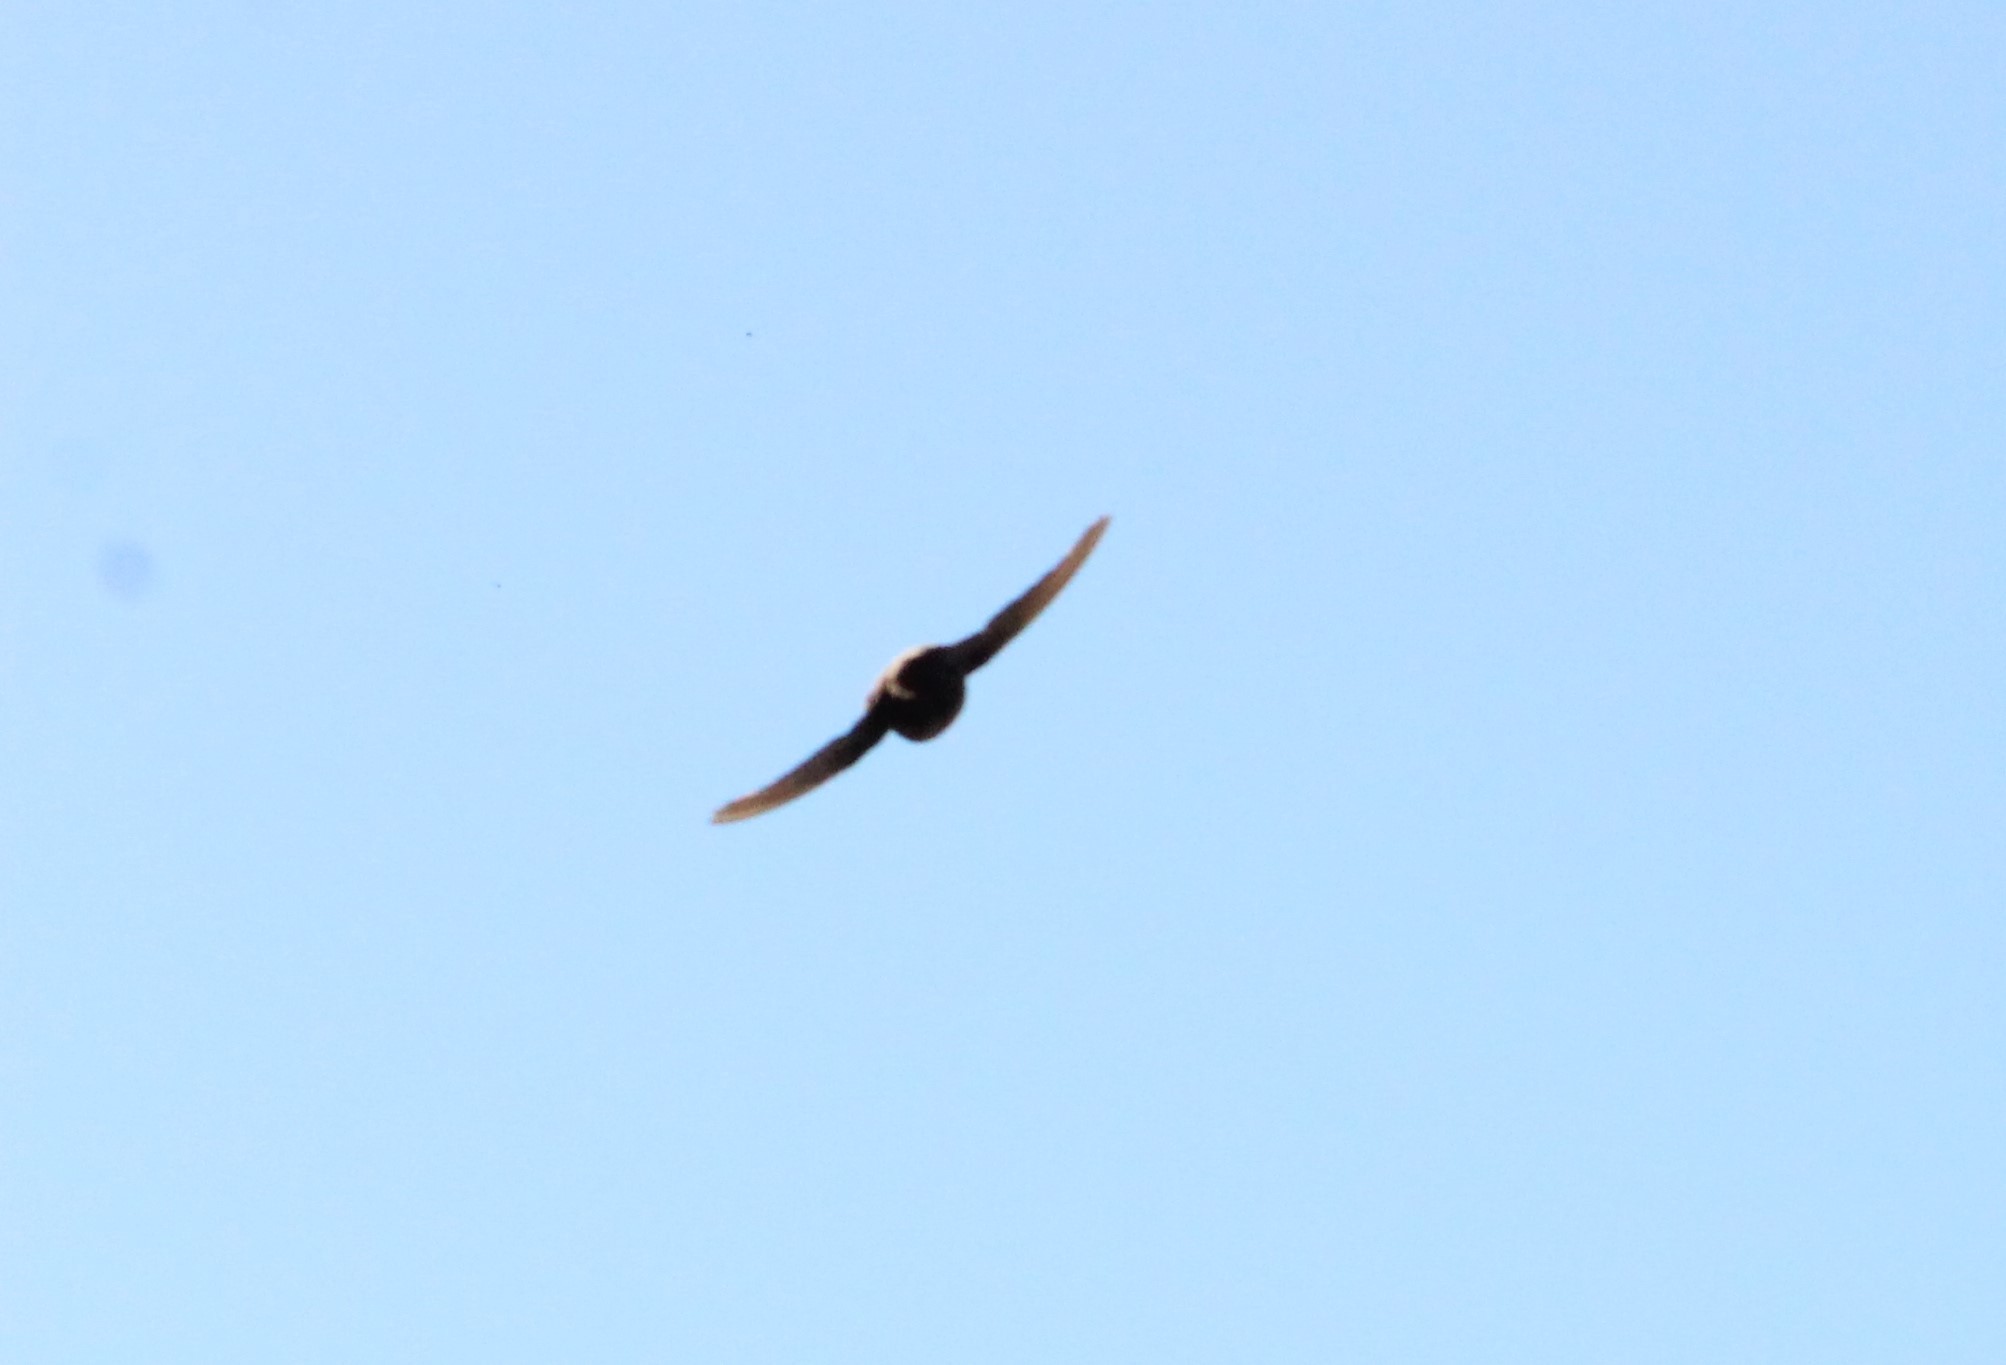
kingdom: Animalia
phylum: Chordata
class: Aves
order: Passeriformes
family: Hirundinidae
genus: Ptyonoprogne
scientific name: Ptyonoprogne rupestris
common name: Eurasian crag martin
